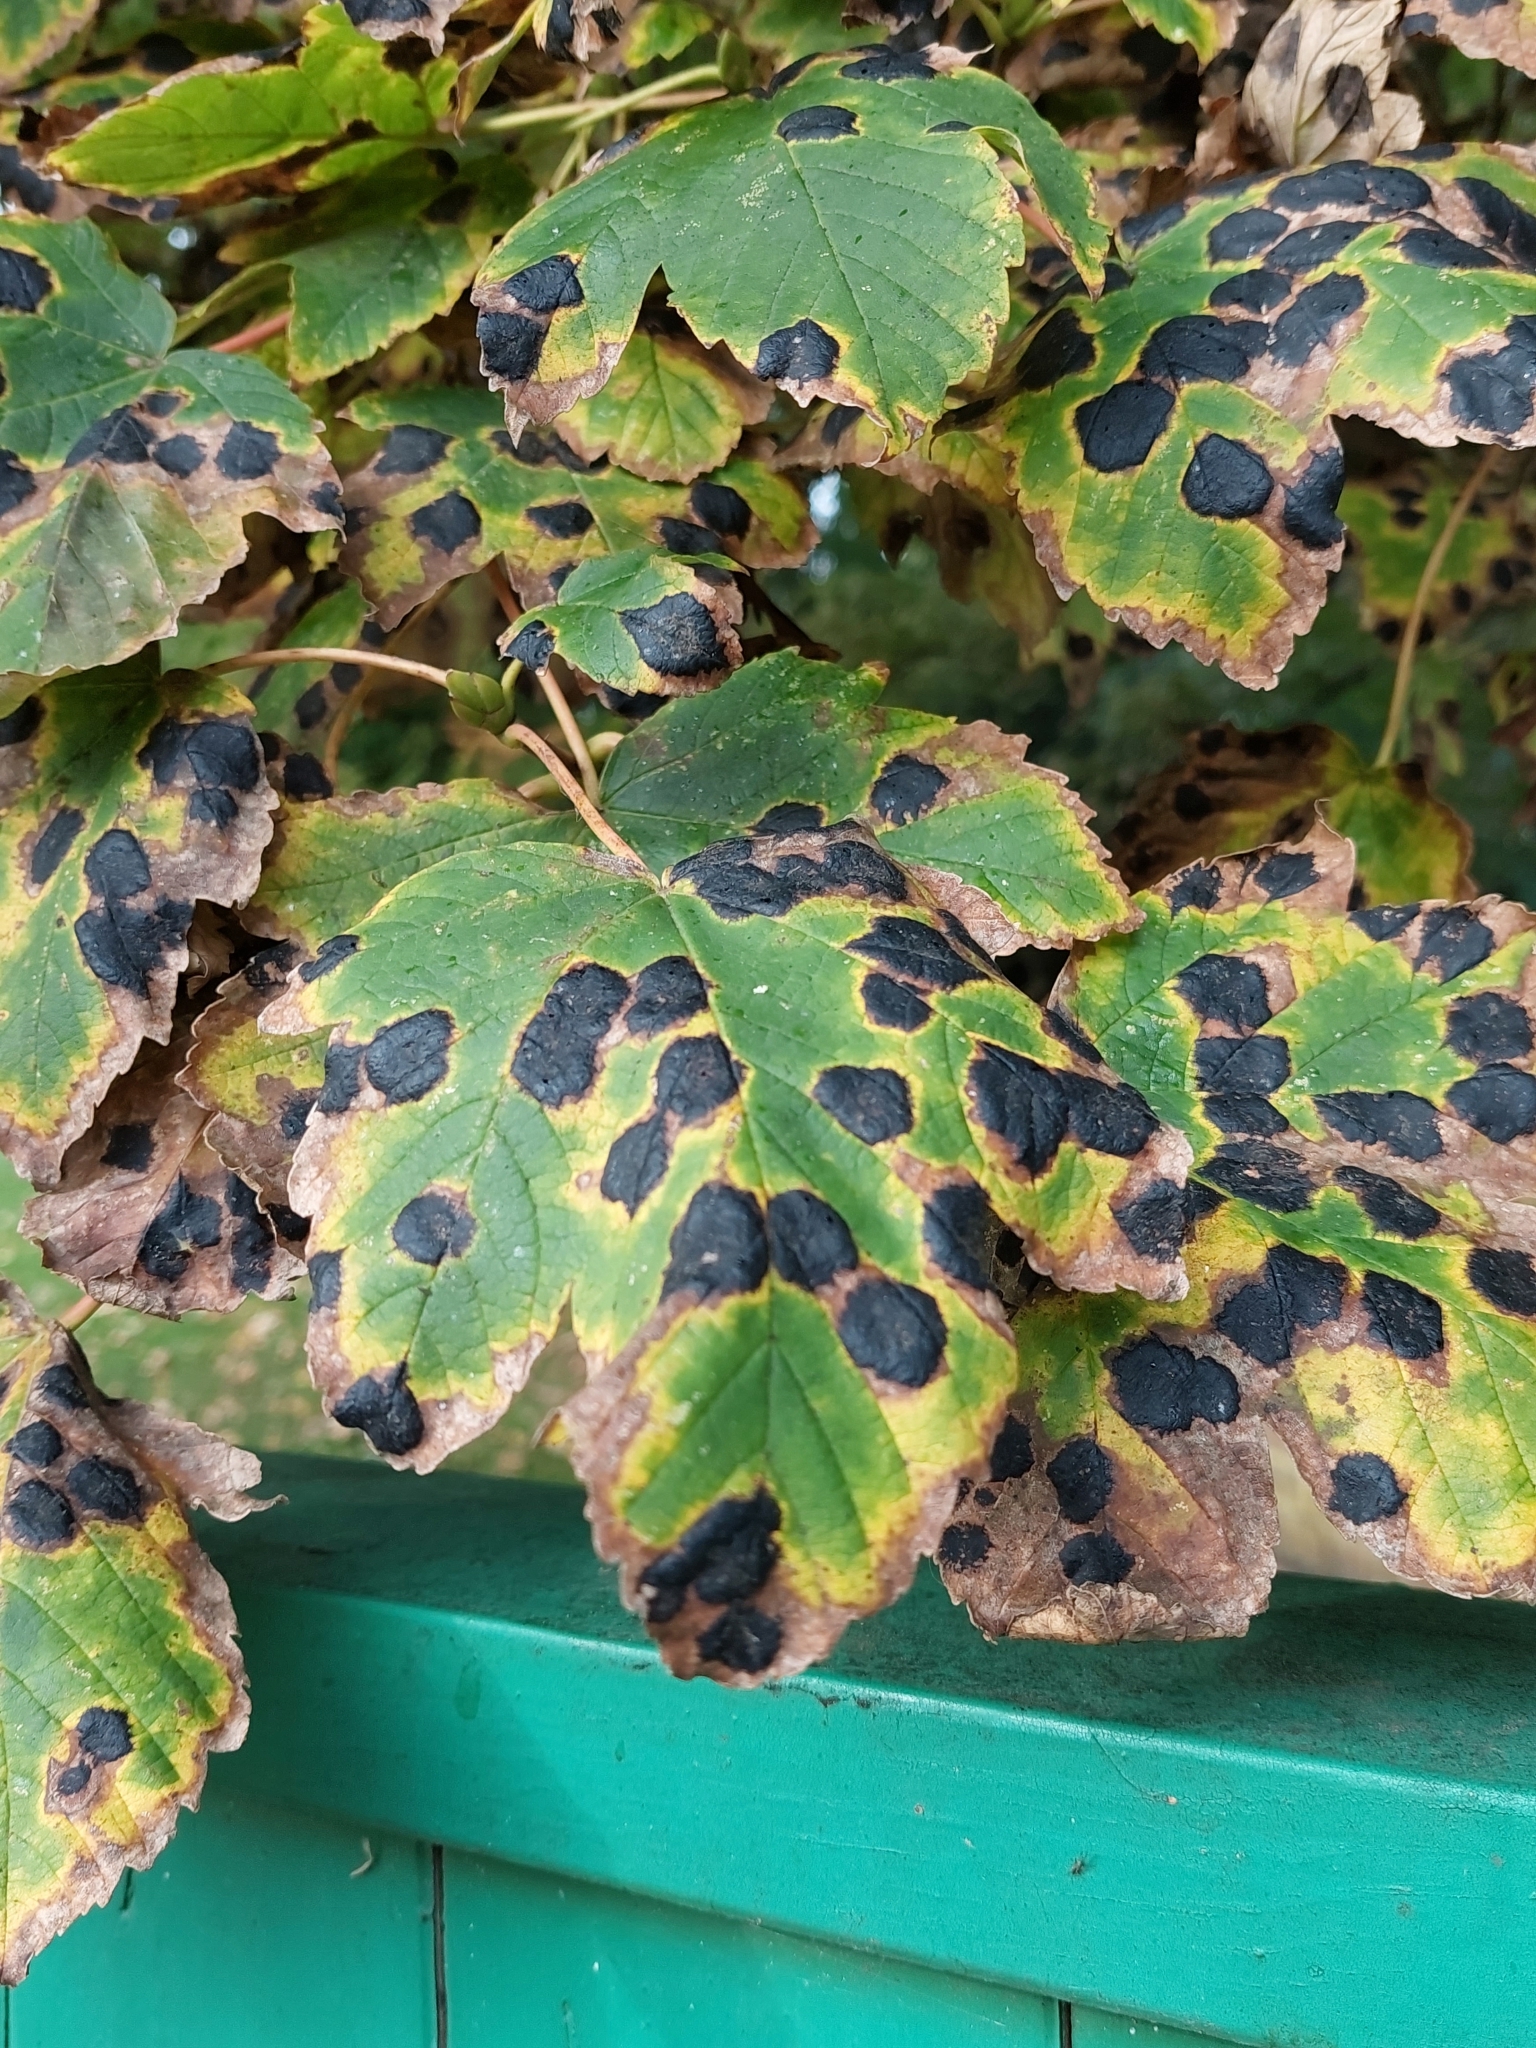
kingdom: Fungi
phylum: Ascomycota
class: Leotiomycetes
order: Rhytismatales
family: Rhytismataceae
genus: Rhytisma
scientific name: Rhytisma acerinum
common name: European tar spot
